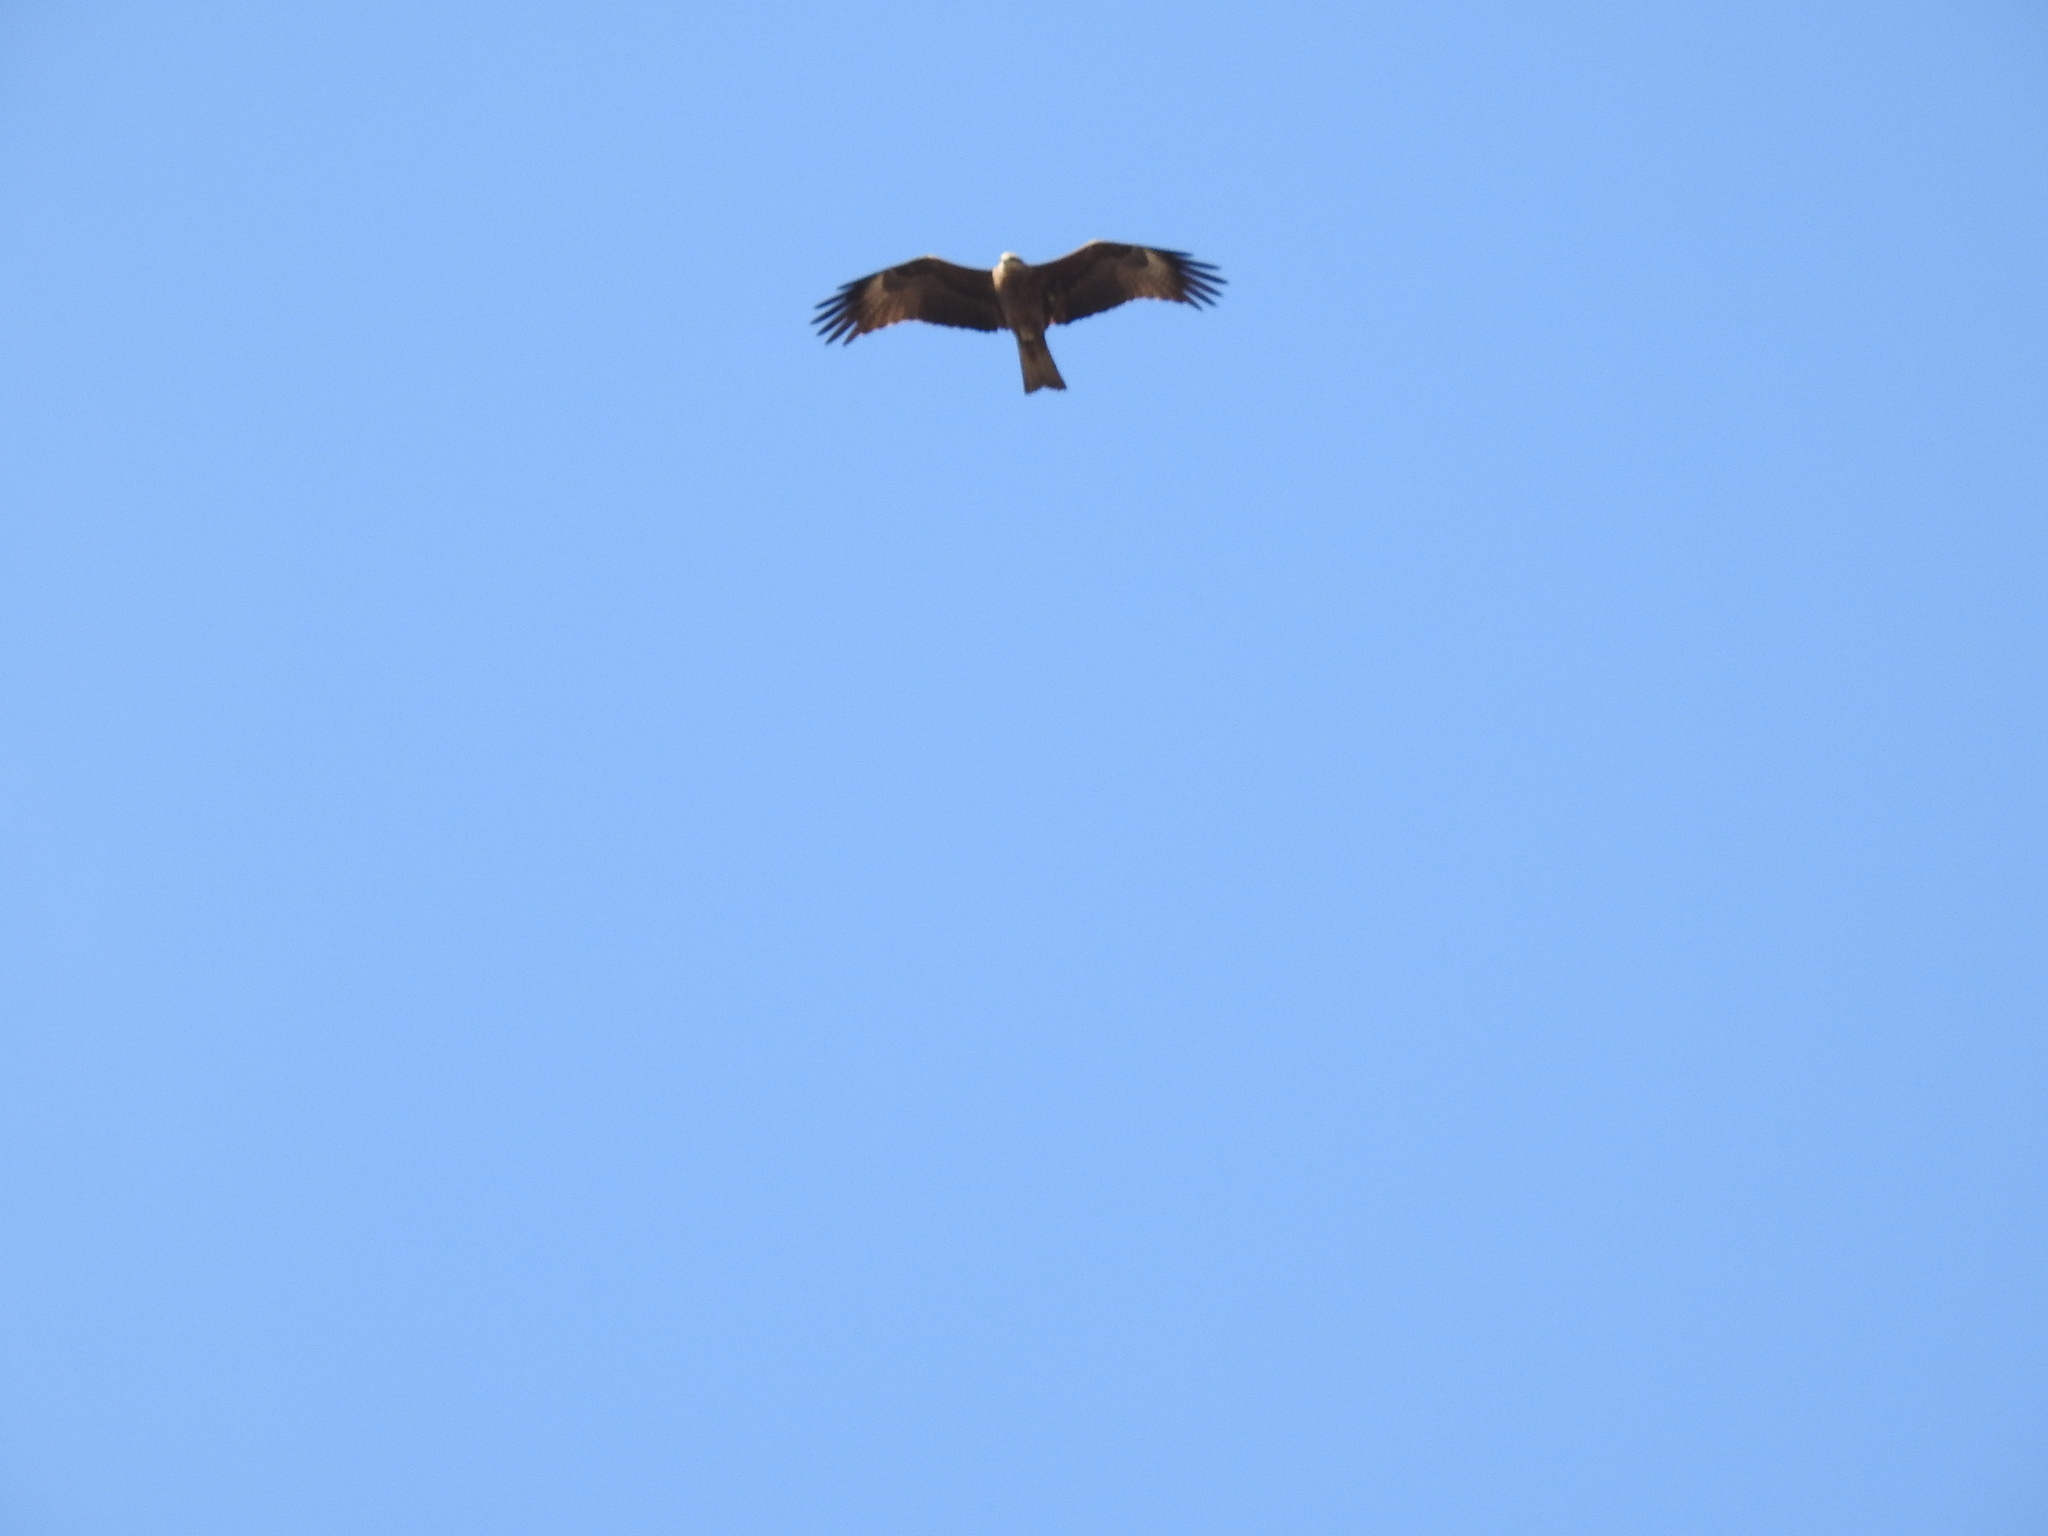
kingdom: Animalia
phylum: Chordata
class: Aves
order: Accipitriformes
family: Accipitridae
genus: Milvus
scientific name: Milvus migrans
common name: Black kite
